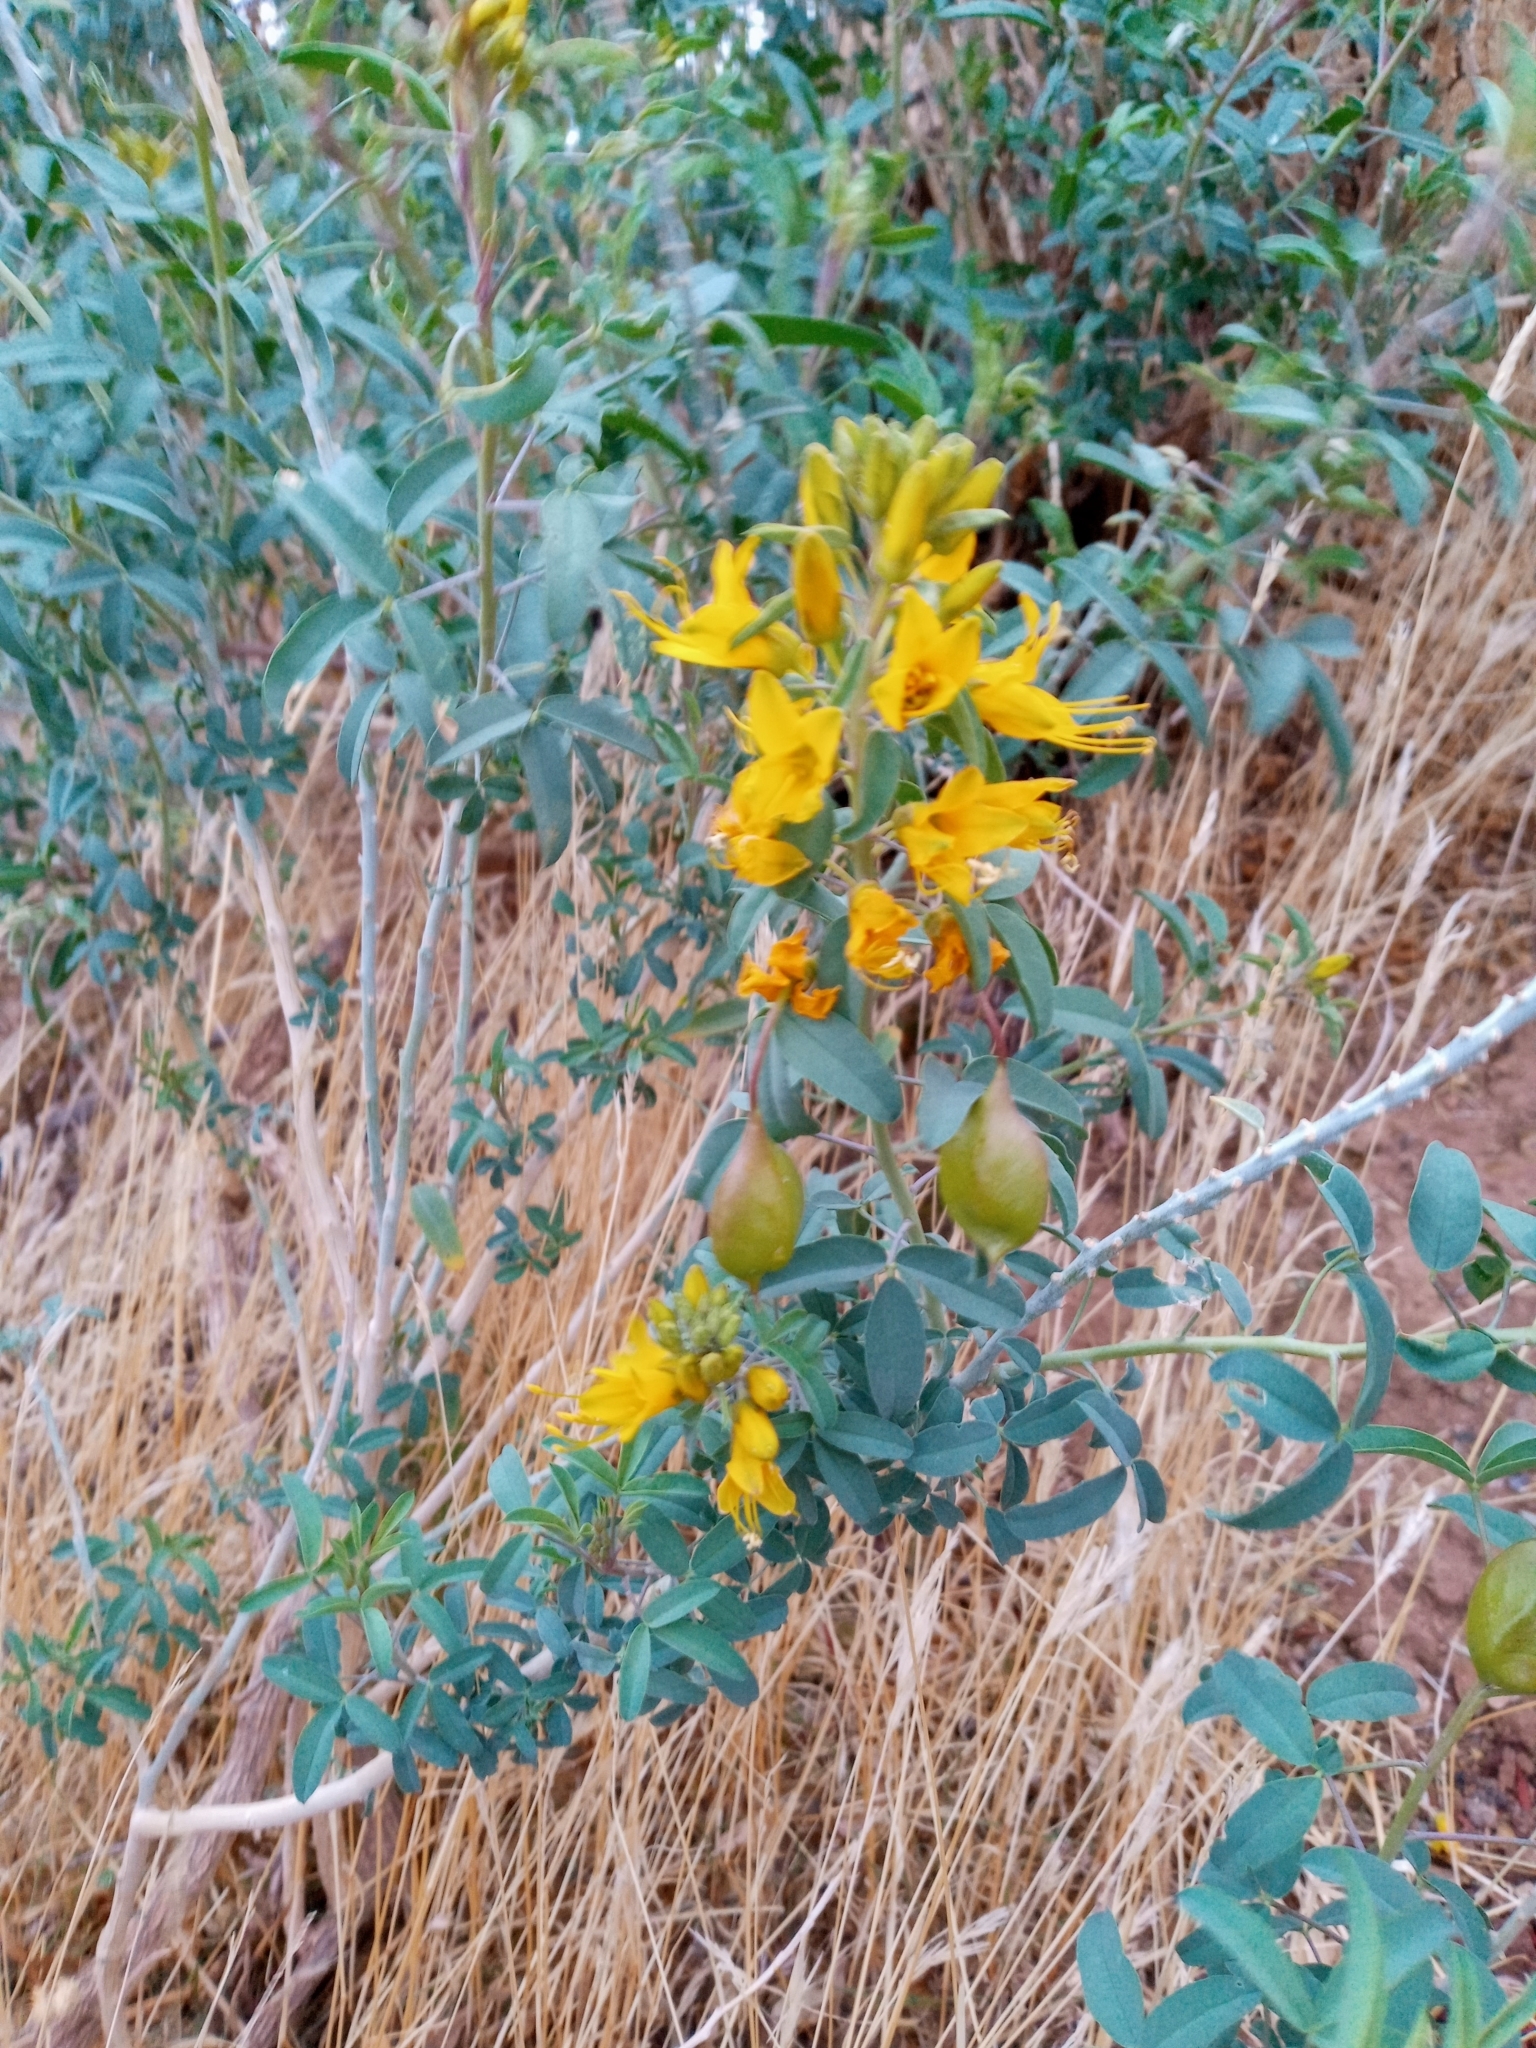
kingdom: Plantae
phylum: Tracheophyta
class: Magnoliopsida
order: Brassicales
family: Cleomaceae
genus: Cleomella
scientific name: Cleomella arborea
